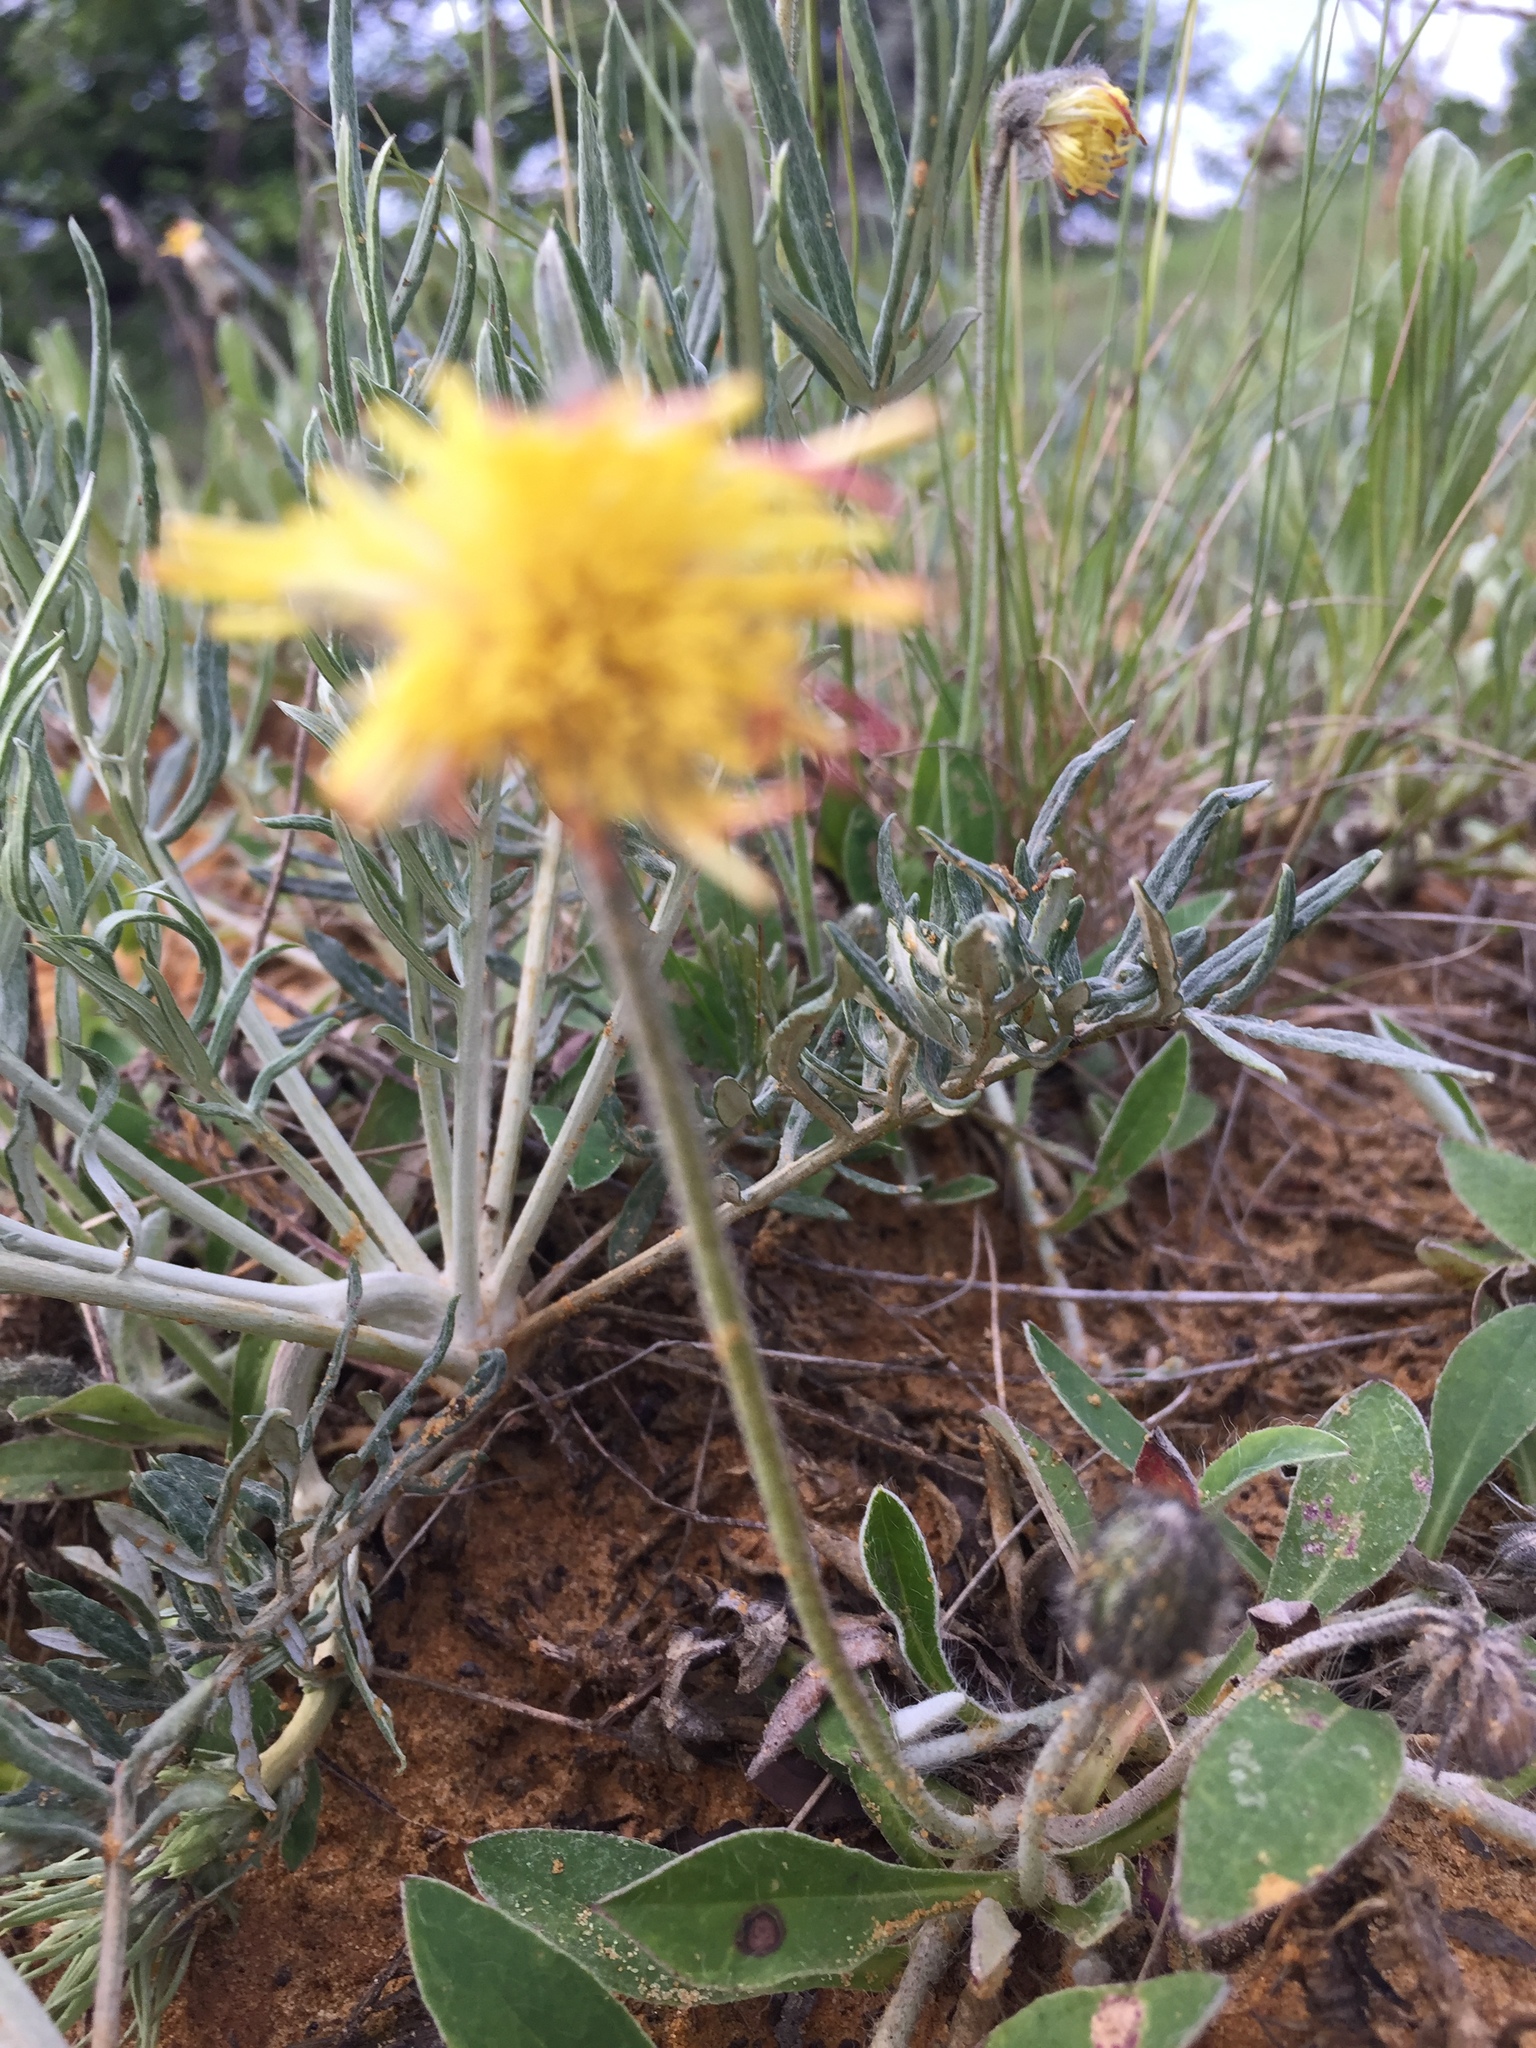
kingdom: Plantae
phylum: Tracheophyta
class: Magnoliopsida
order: Asterales
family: Asteraceae
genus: Pilosella
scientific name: Pilosella officinarum
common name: Mouse-ear hawkweed
